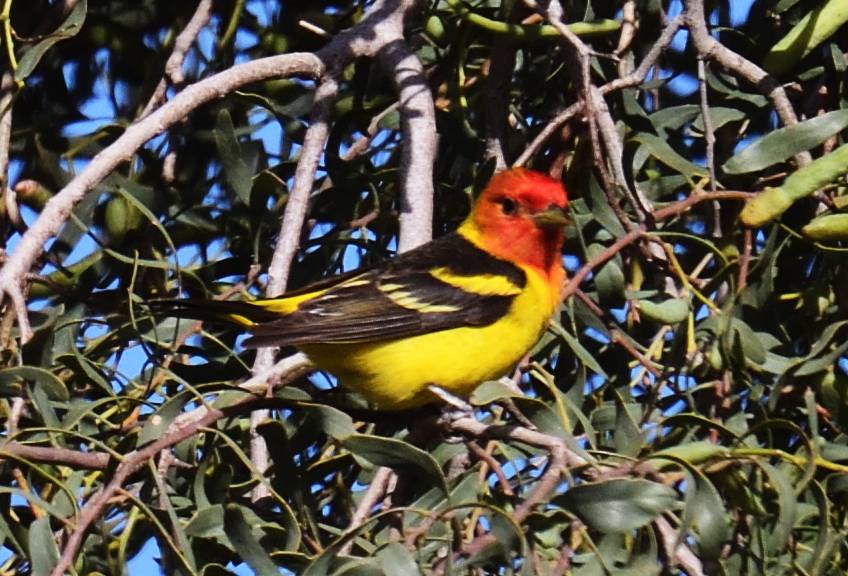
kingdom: Animalia
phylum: Chordata
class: Aves
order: Passeriformes
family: Cardinalidae
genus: Piranga
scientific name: Piranga ludoviciana
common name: Western tanager
